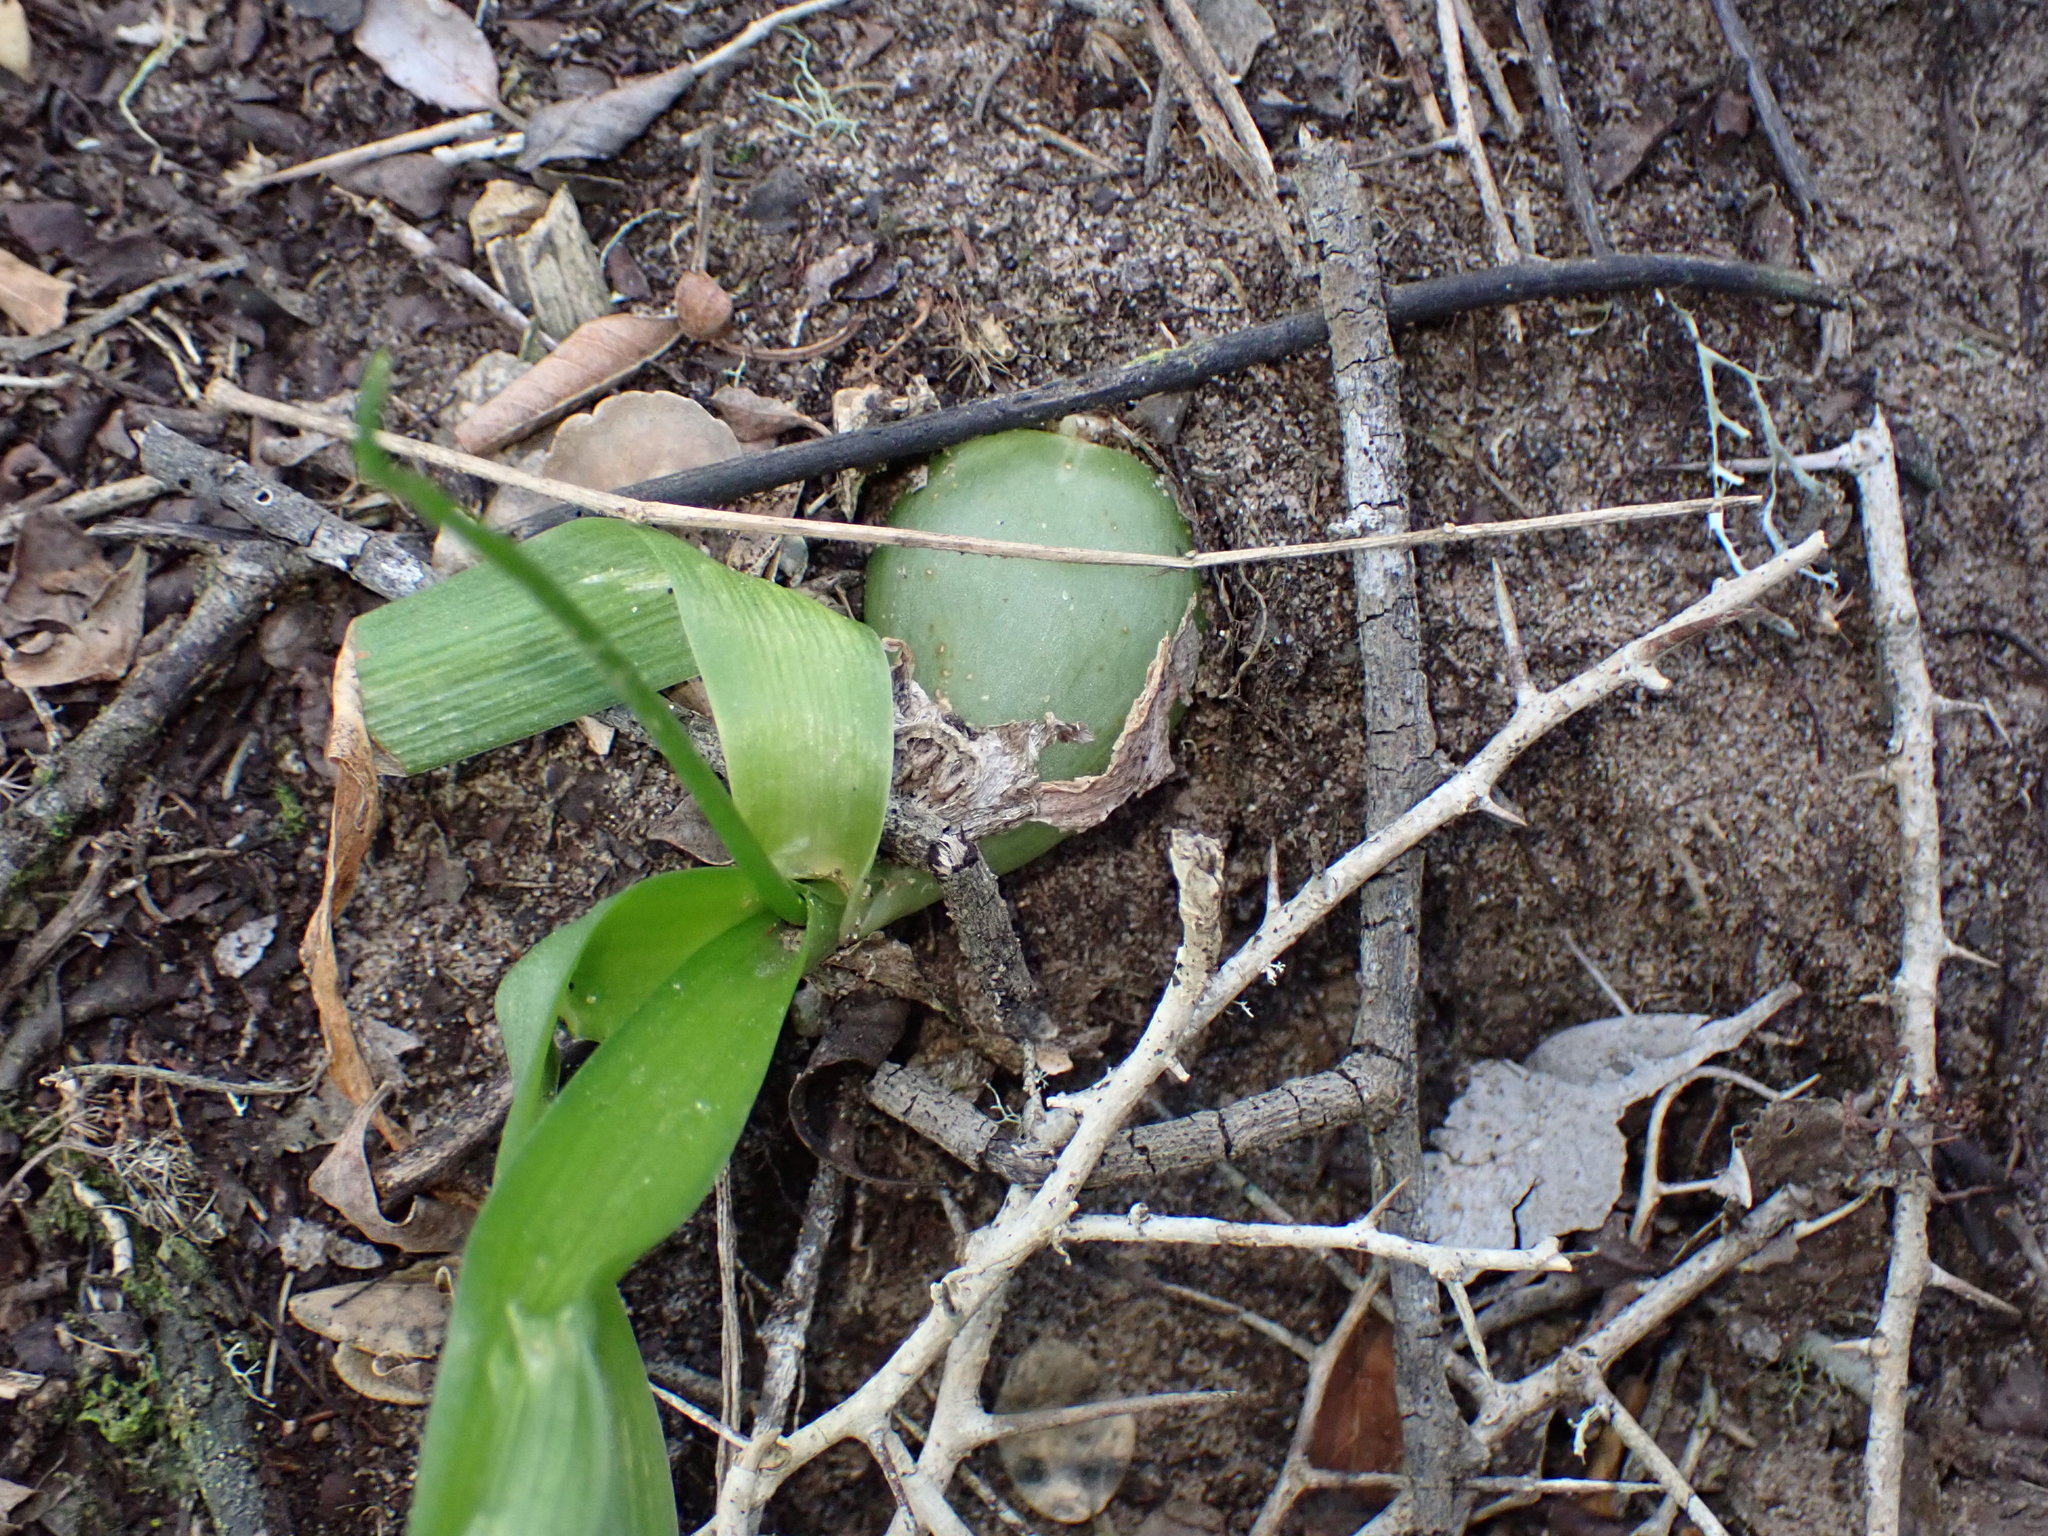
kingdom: Plantae
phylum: Tracheophyta
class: Liliopsida
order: Asparagales
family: Asparagaceae
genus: Albuca
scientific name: Albuca bracteata
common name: Sea-onion
